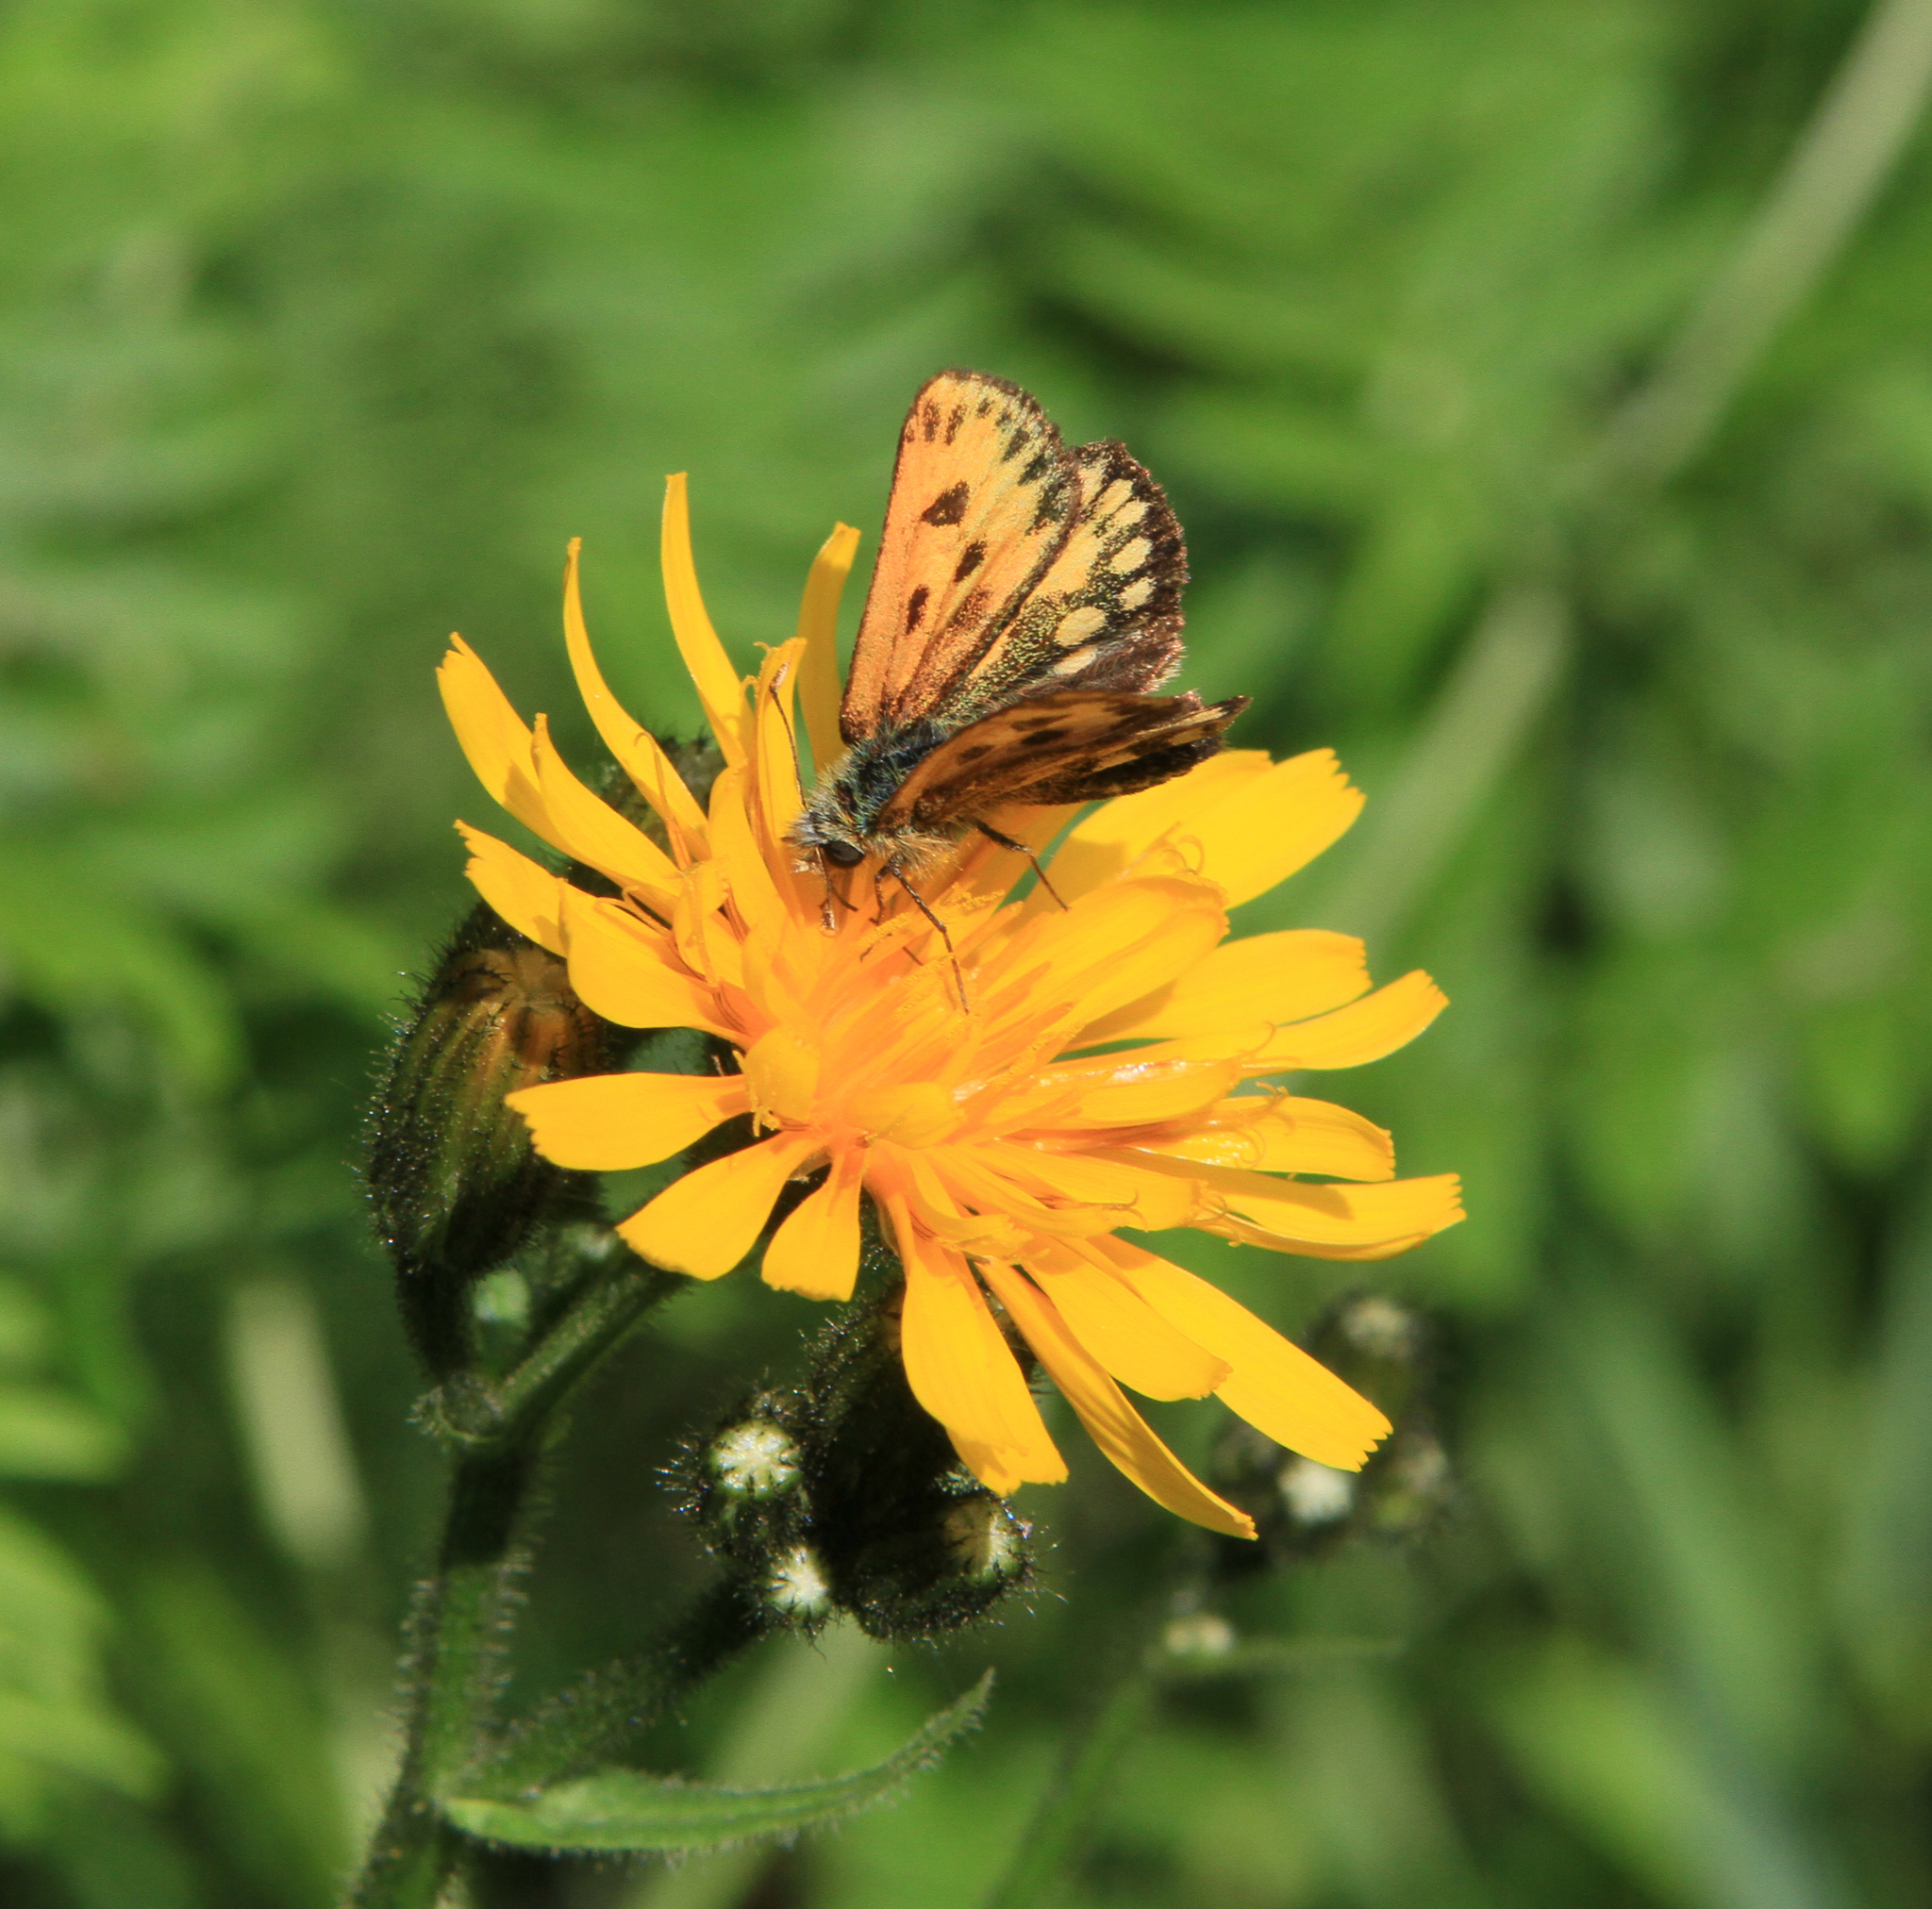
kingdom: Plantae
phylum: Tracheophyta
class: Magnoliopsida
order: Asterales
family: Asteraceae
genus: Crepis
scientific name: Crepis lyrata
